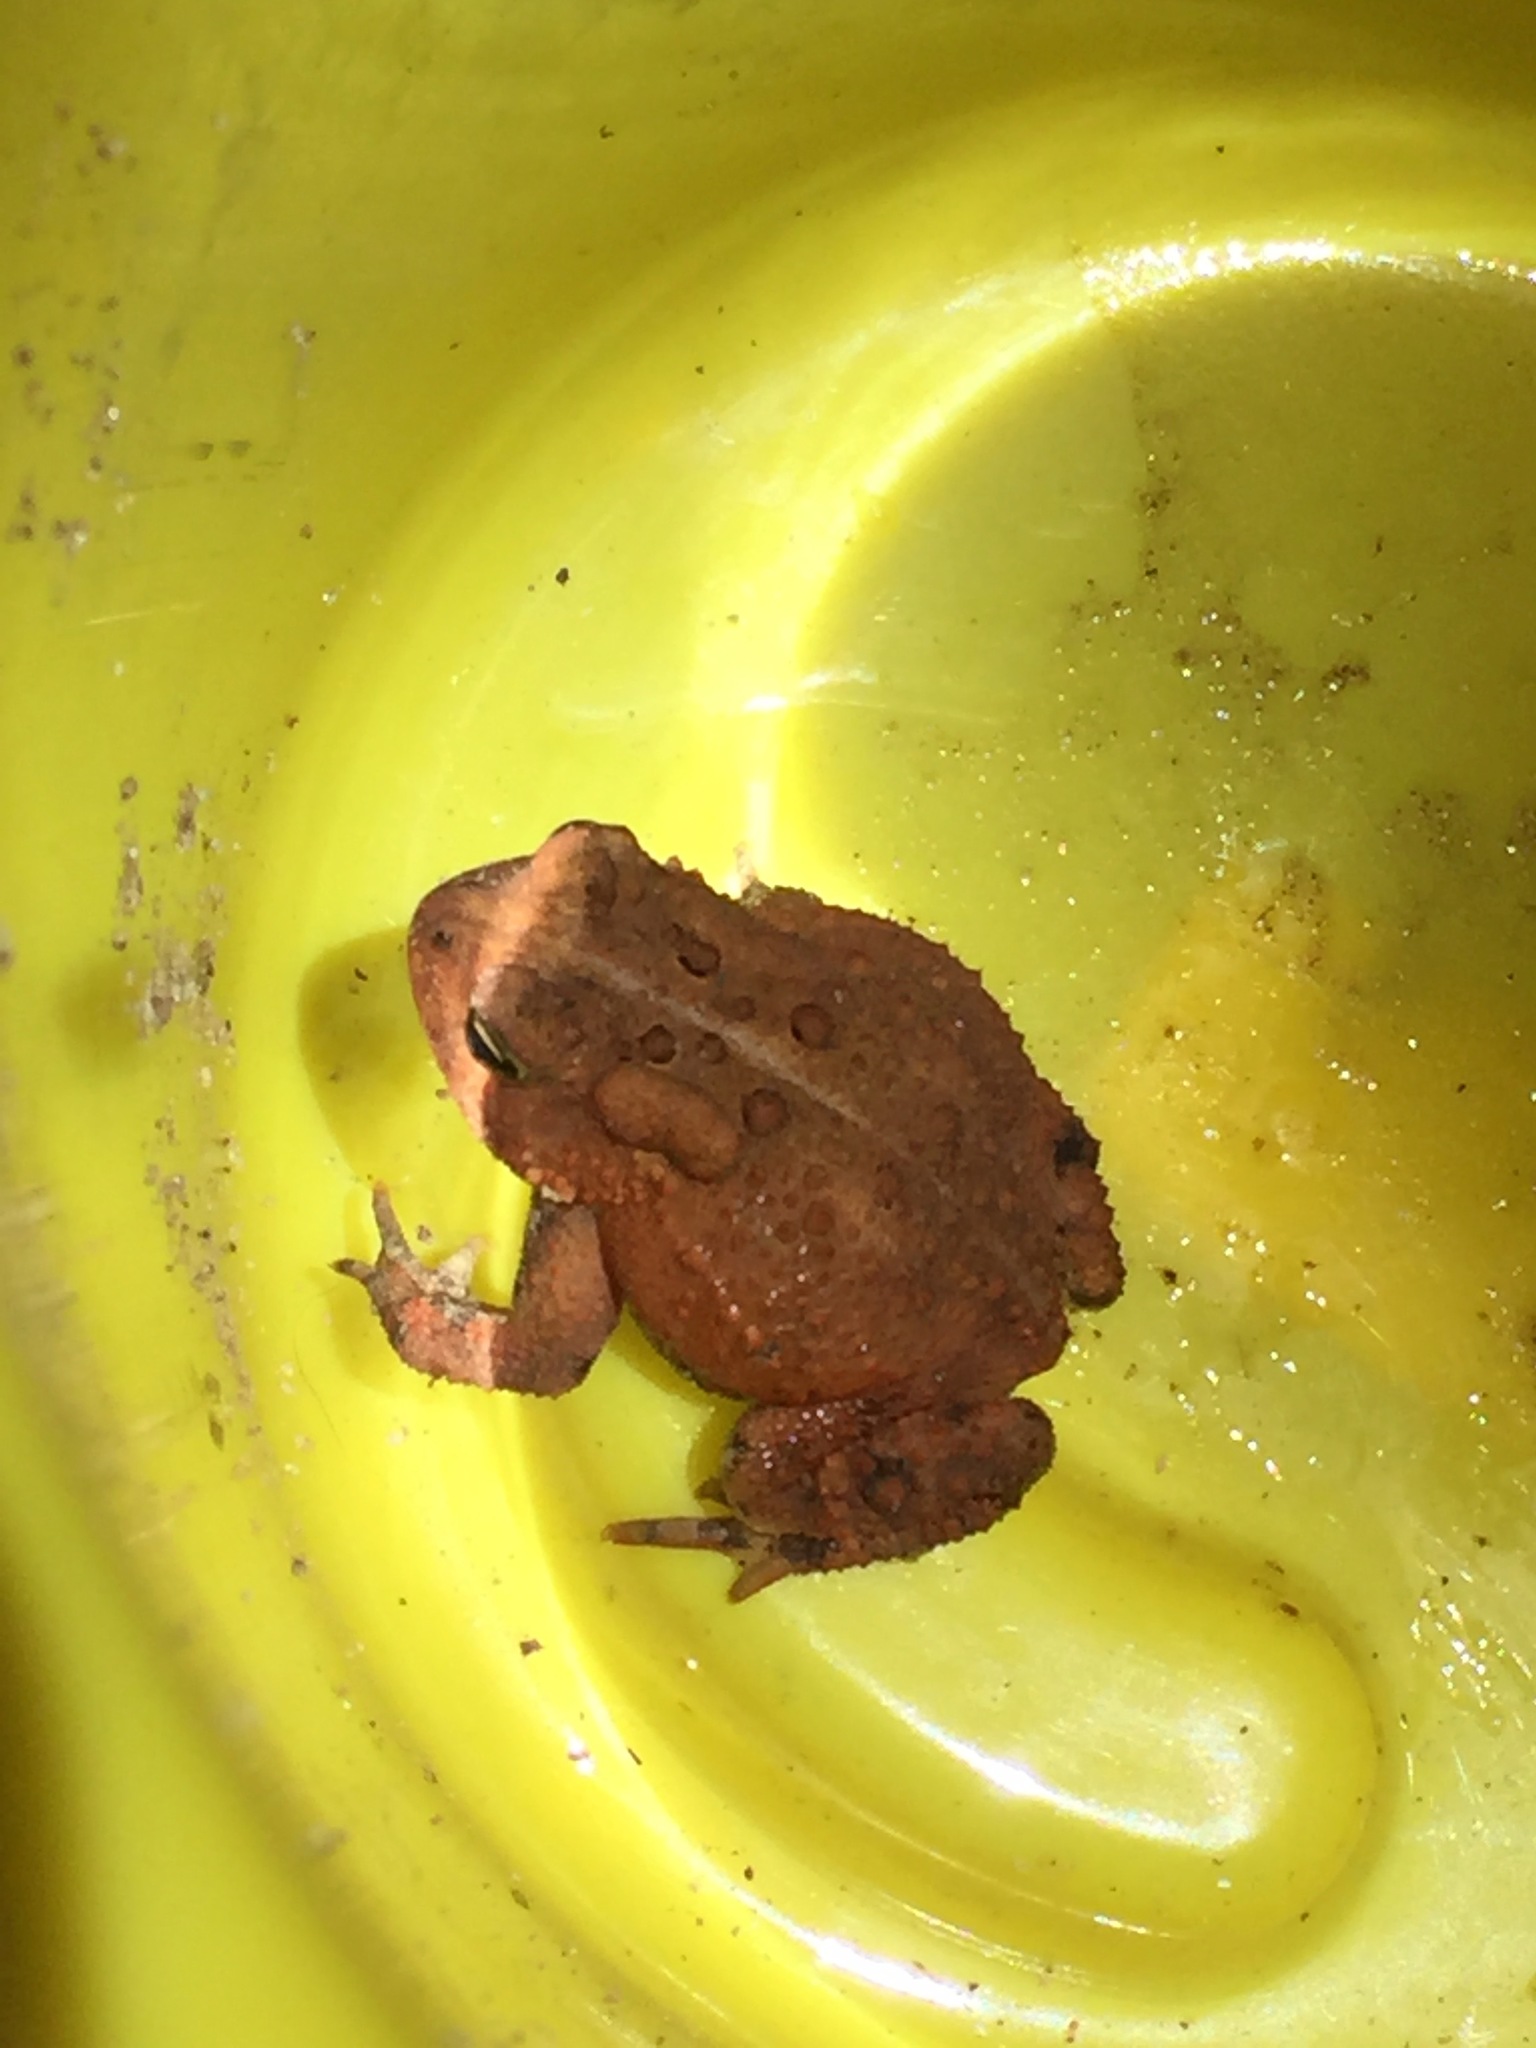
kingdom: Animalia
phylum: Chordata
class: Amphibia
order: Anura
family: Bufonidae
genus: Anaxyrus
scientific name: Anaxyrus americanus
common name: American toad
